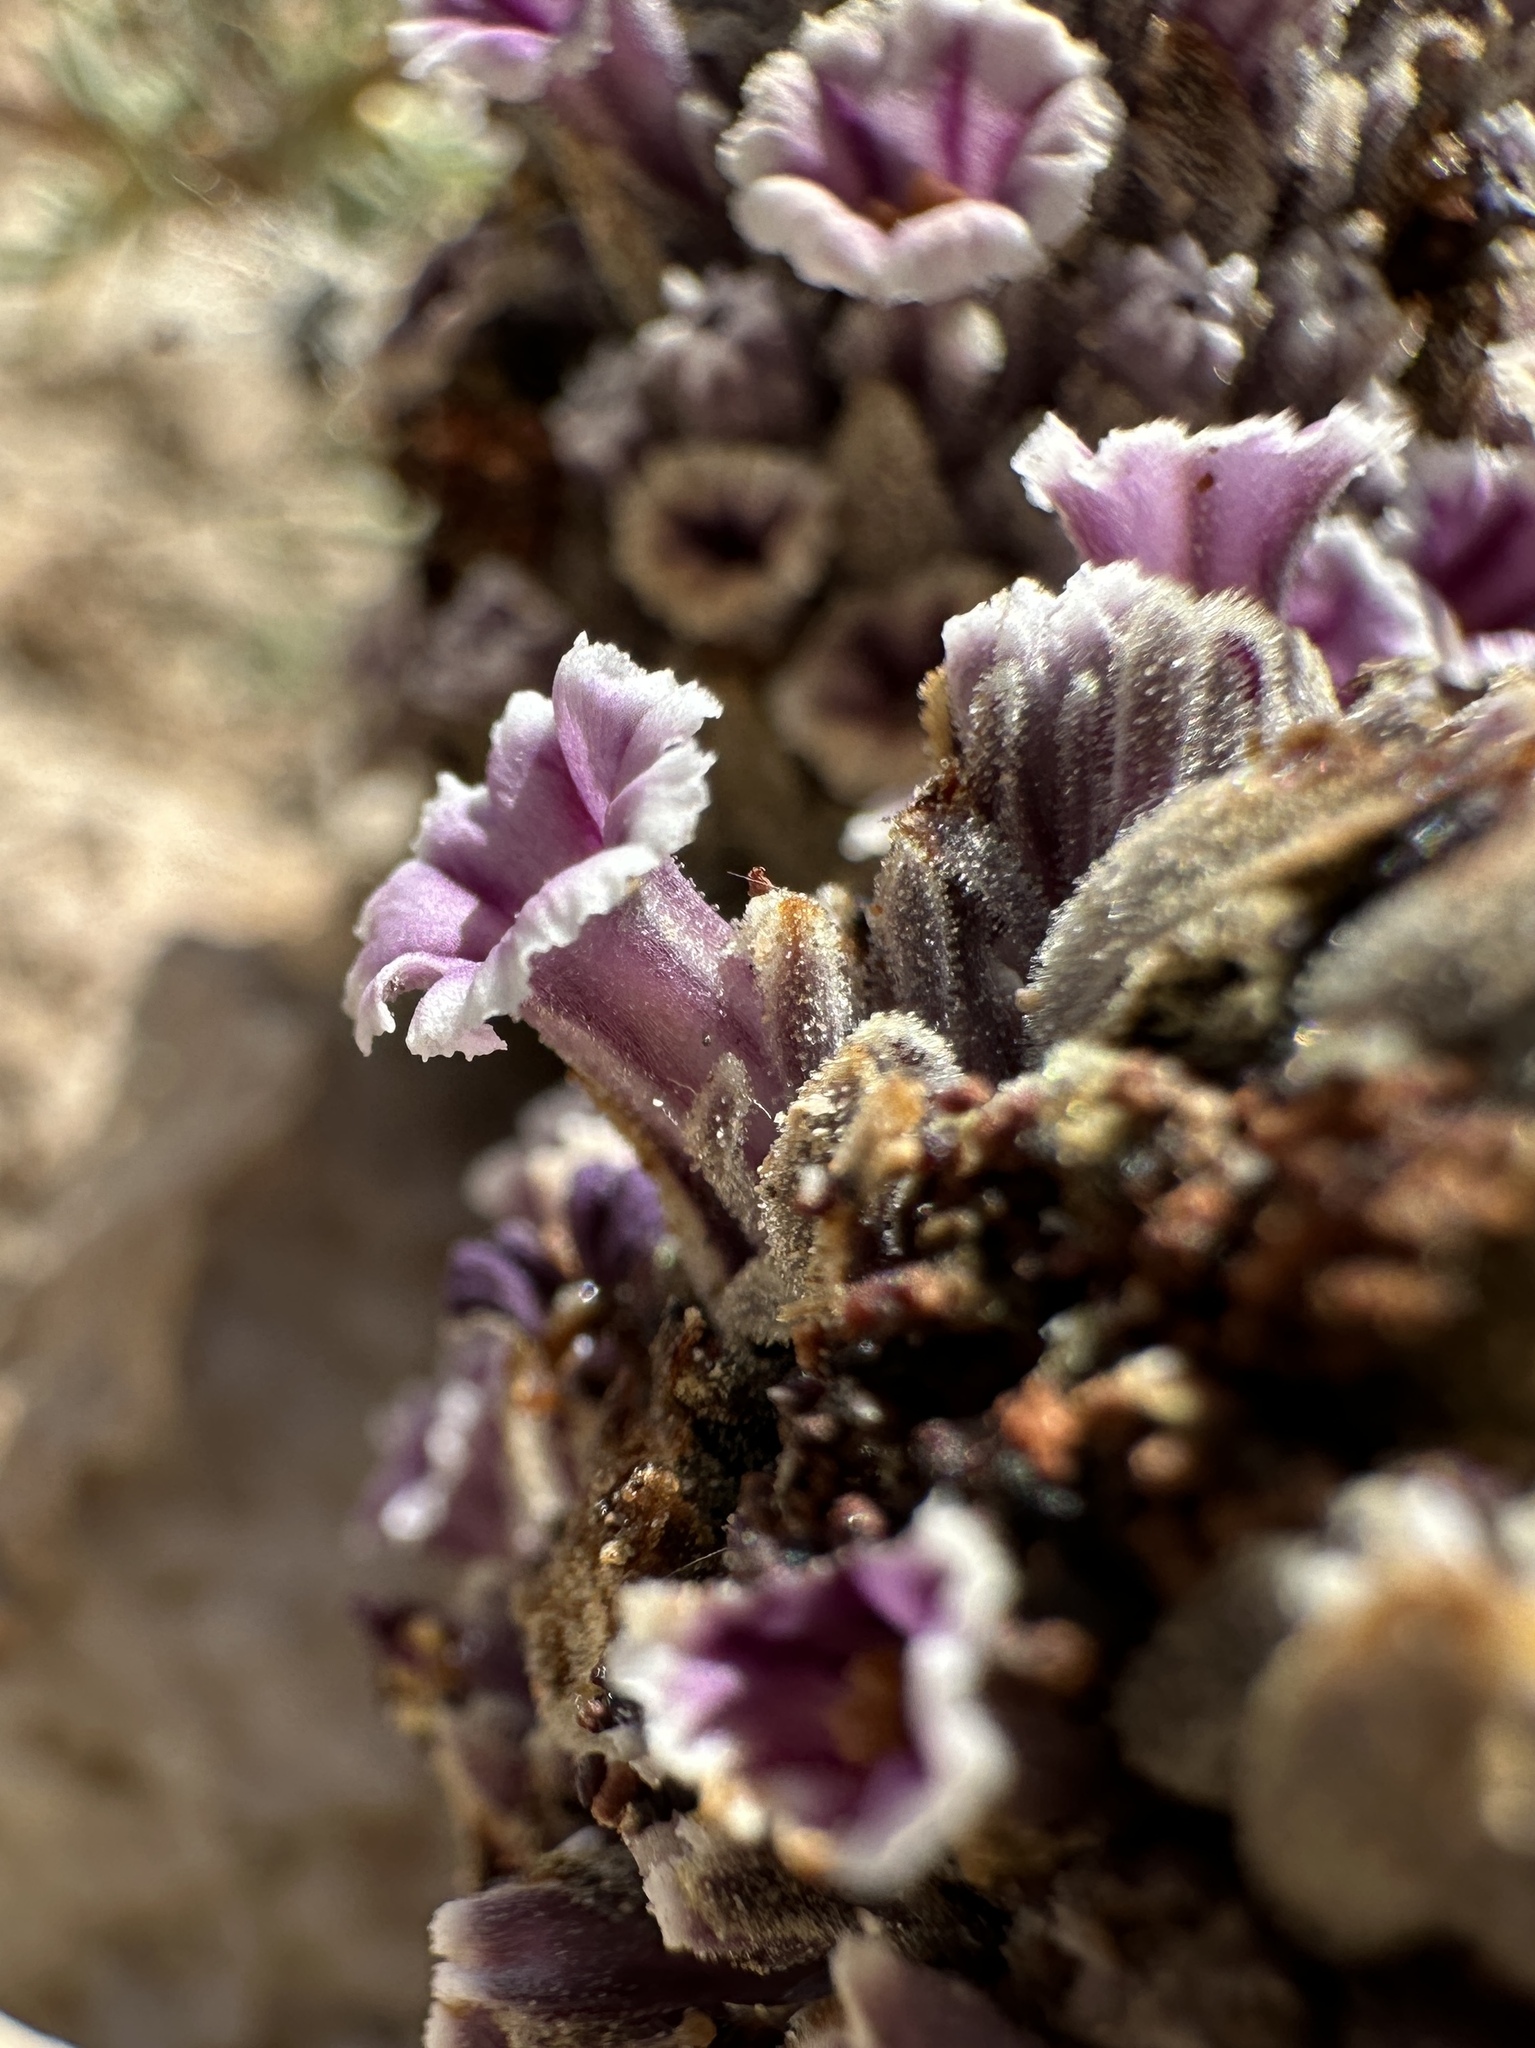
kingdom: Plantae
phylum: Tracheophyta
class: Magnoliopsida
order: Boraginales
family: Lennoaceae
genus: Pholisma
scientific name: Pholisma arenarium
